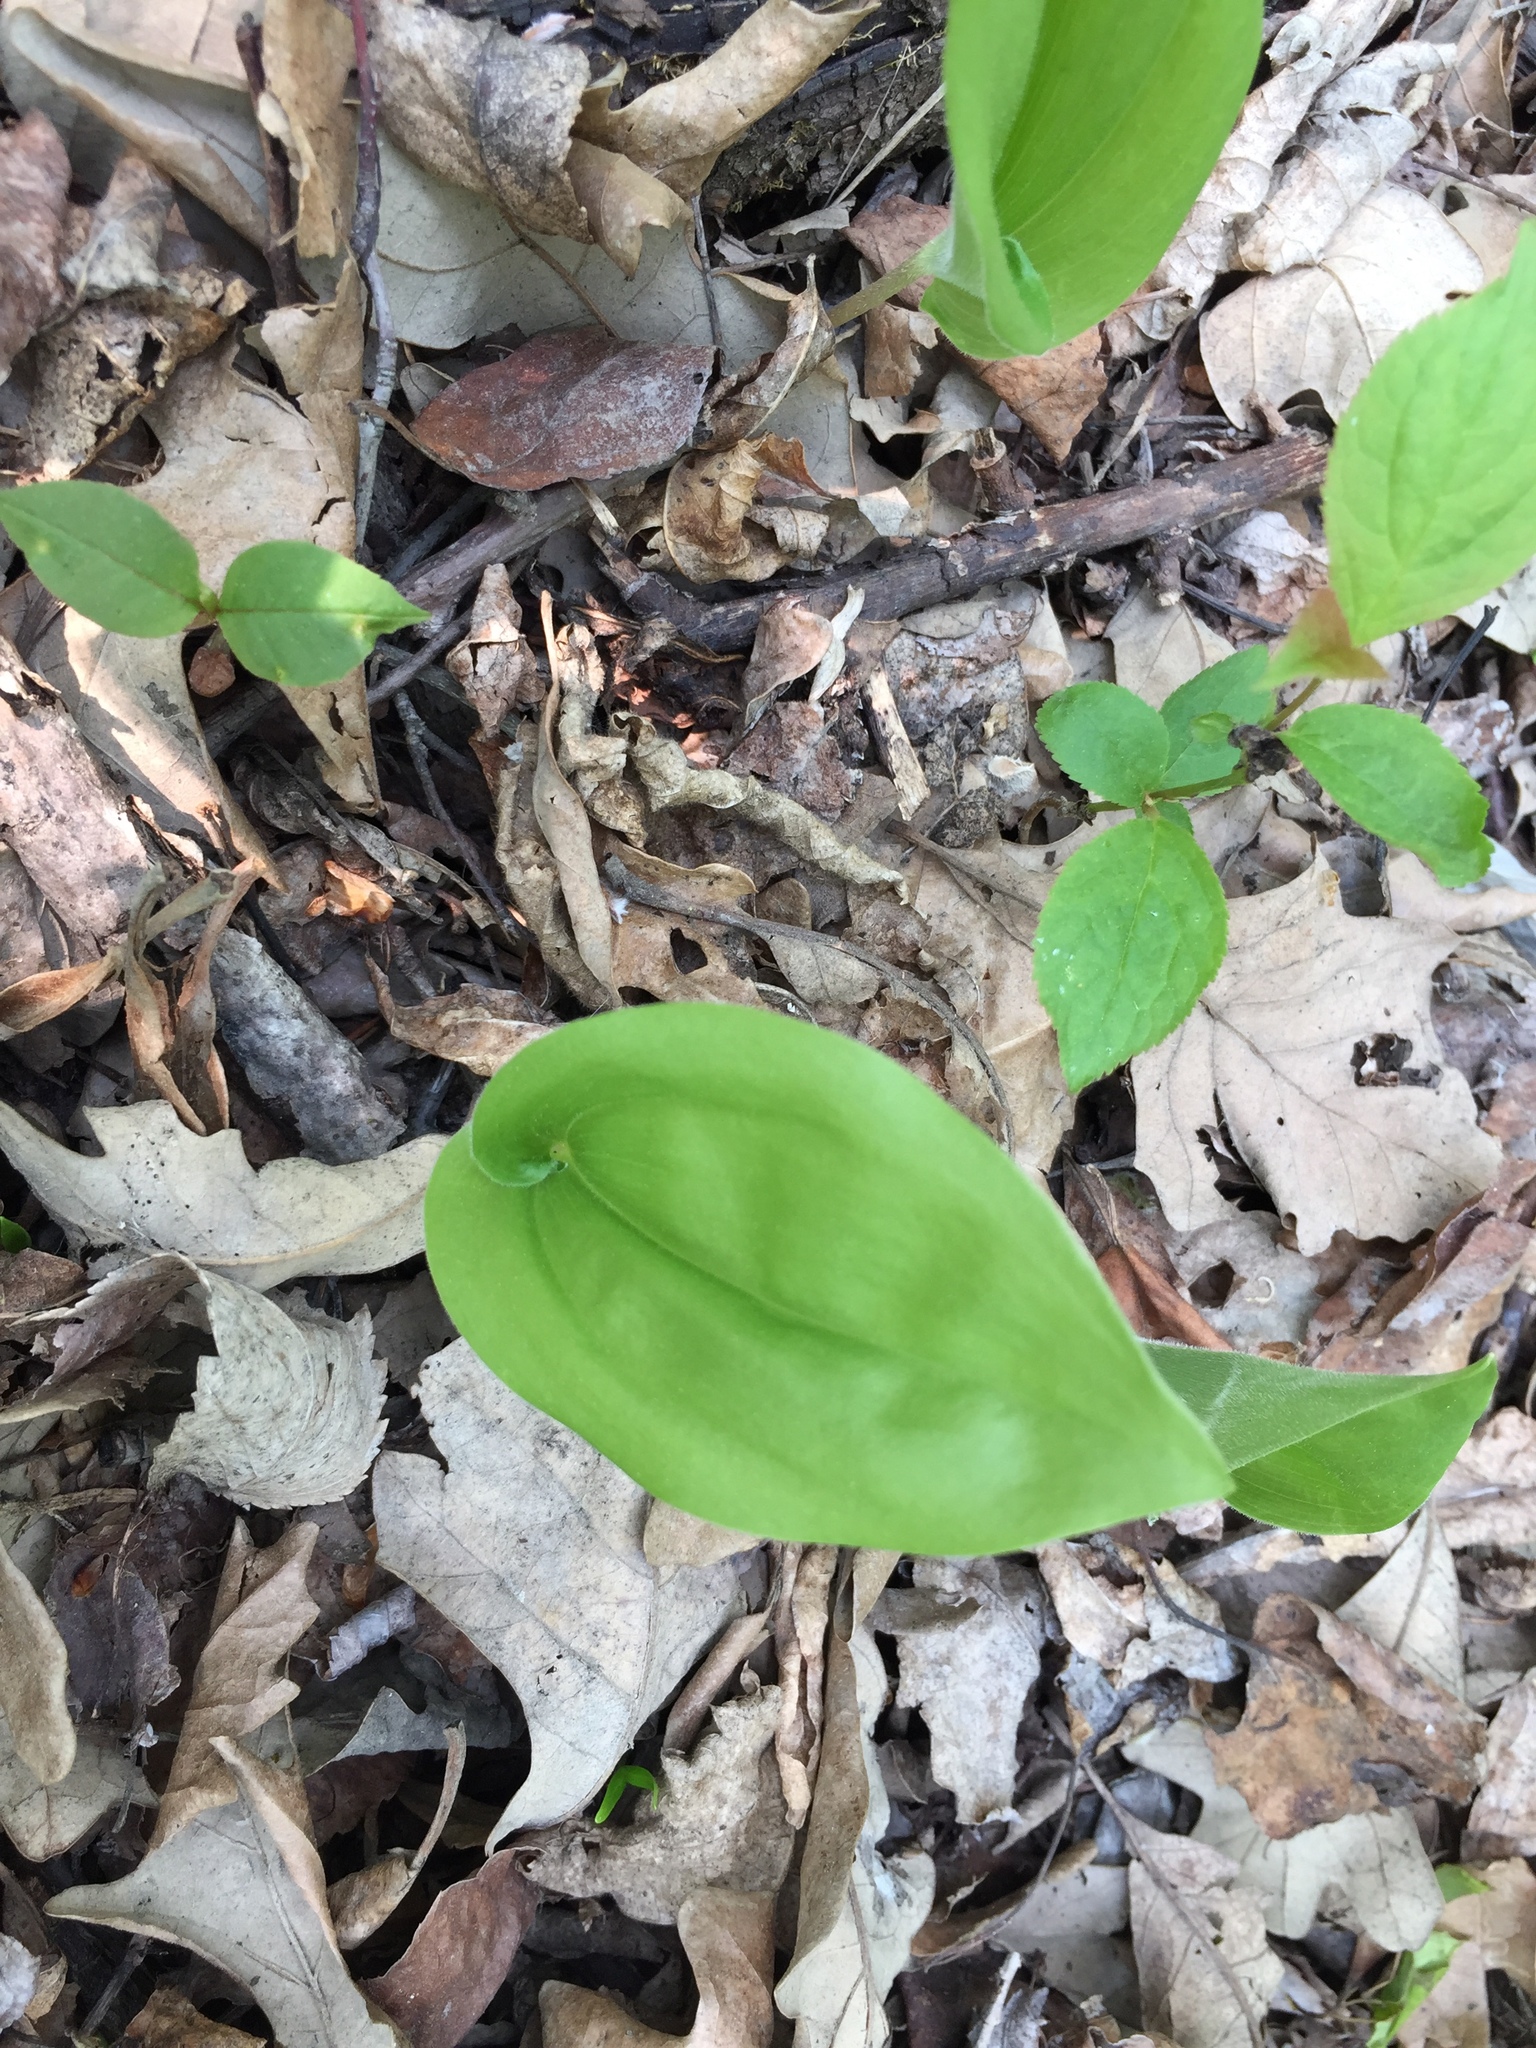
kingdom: Plantae
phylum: Tracheophyta
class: Liliopsida
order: Asparagales
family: Asparagaceae
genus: Maianthemum
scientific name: Maianthemum canadense
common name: False lily-of-the-valley
